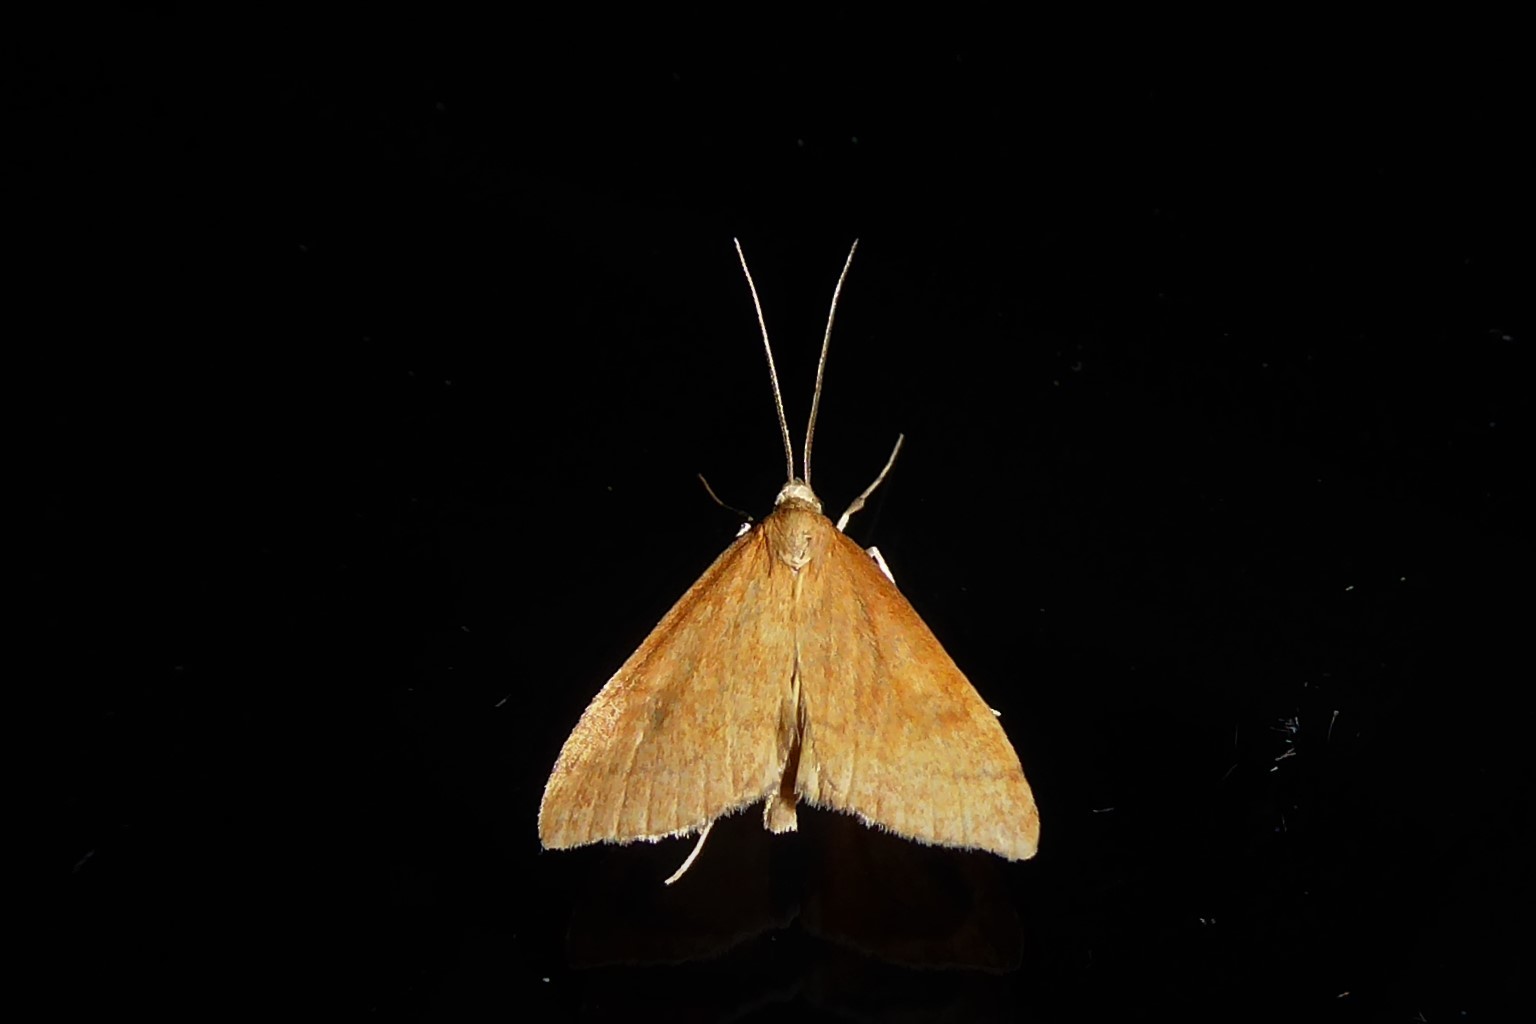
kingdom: Animalia
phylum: Arthropoda
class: Insecta
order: Lepidoptera
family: Crambidae
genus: Udea
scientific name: Udea Mnesictena flavidalis
